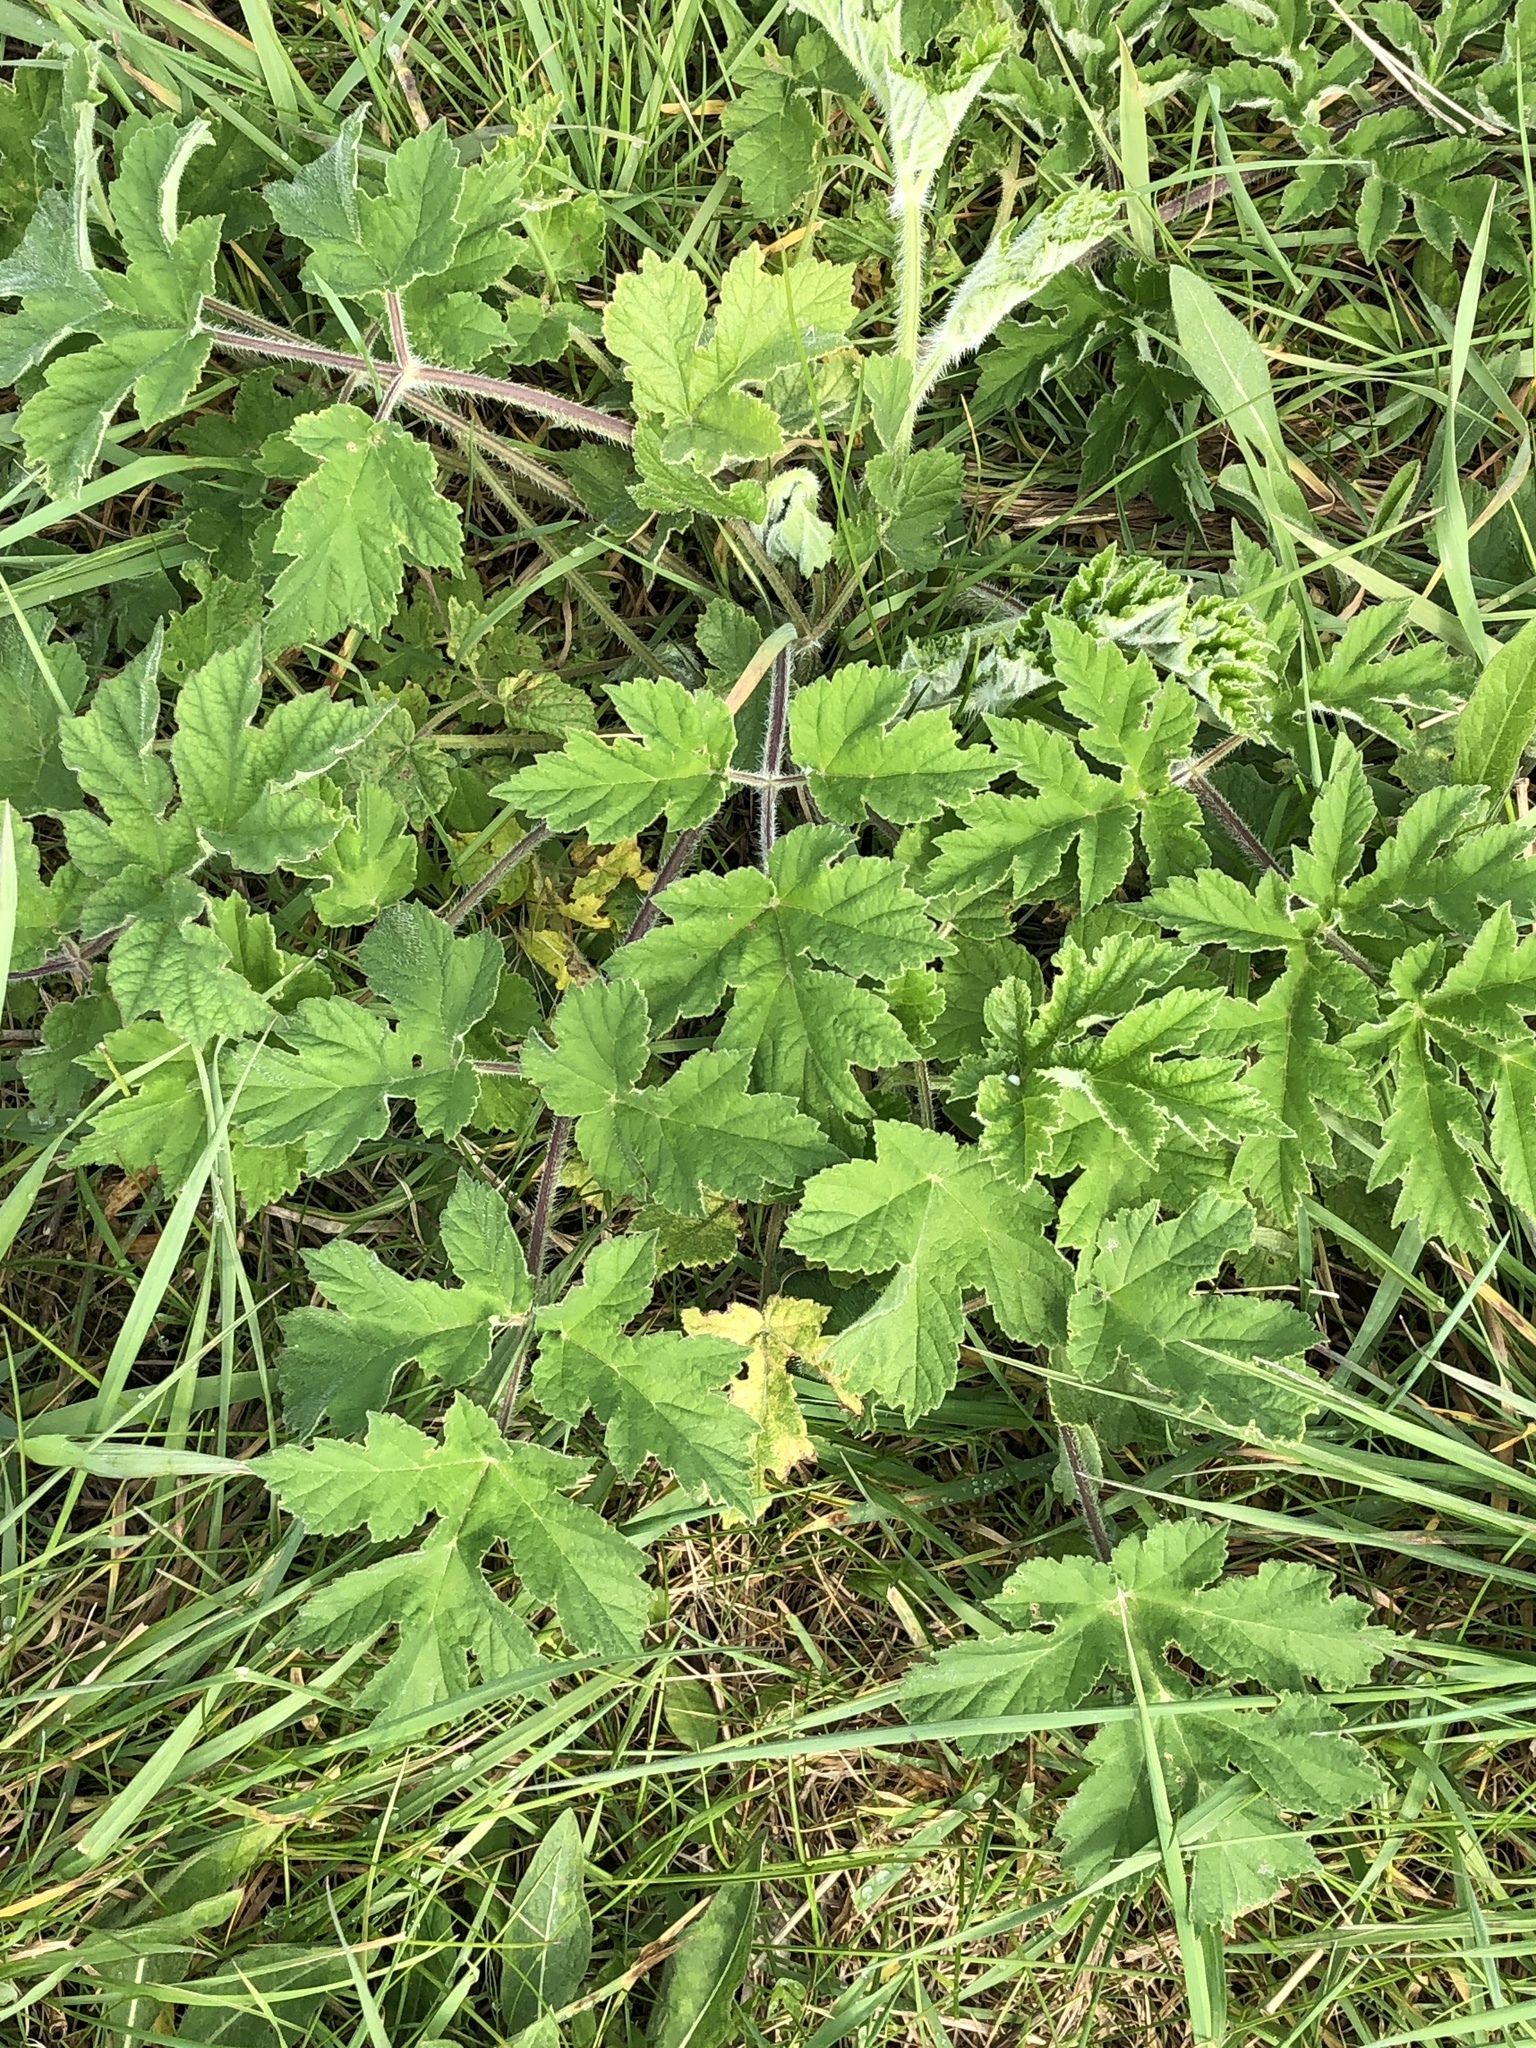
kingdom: Plantae
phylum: Tracheophyta
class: Magnoliopsida
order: Apiales
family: Apiaceae
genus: Heracleum
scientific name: Heracleum sphondylium
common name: Hogweed
